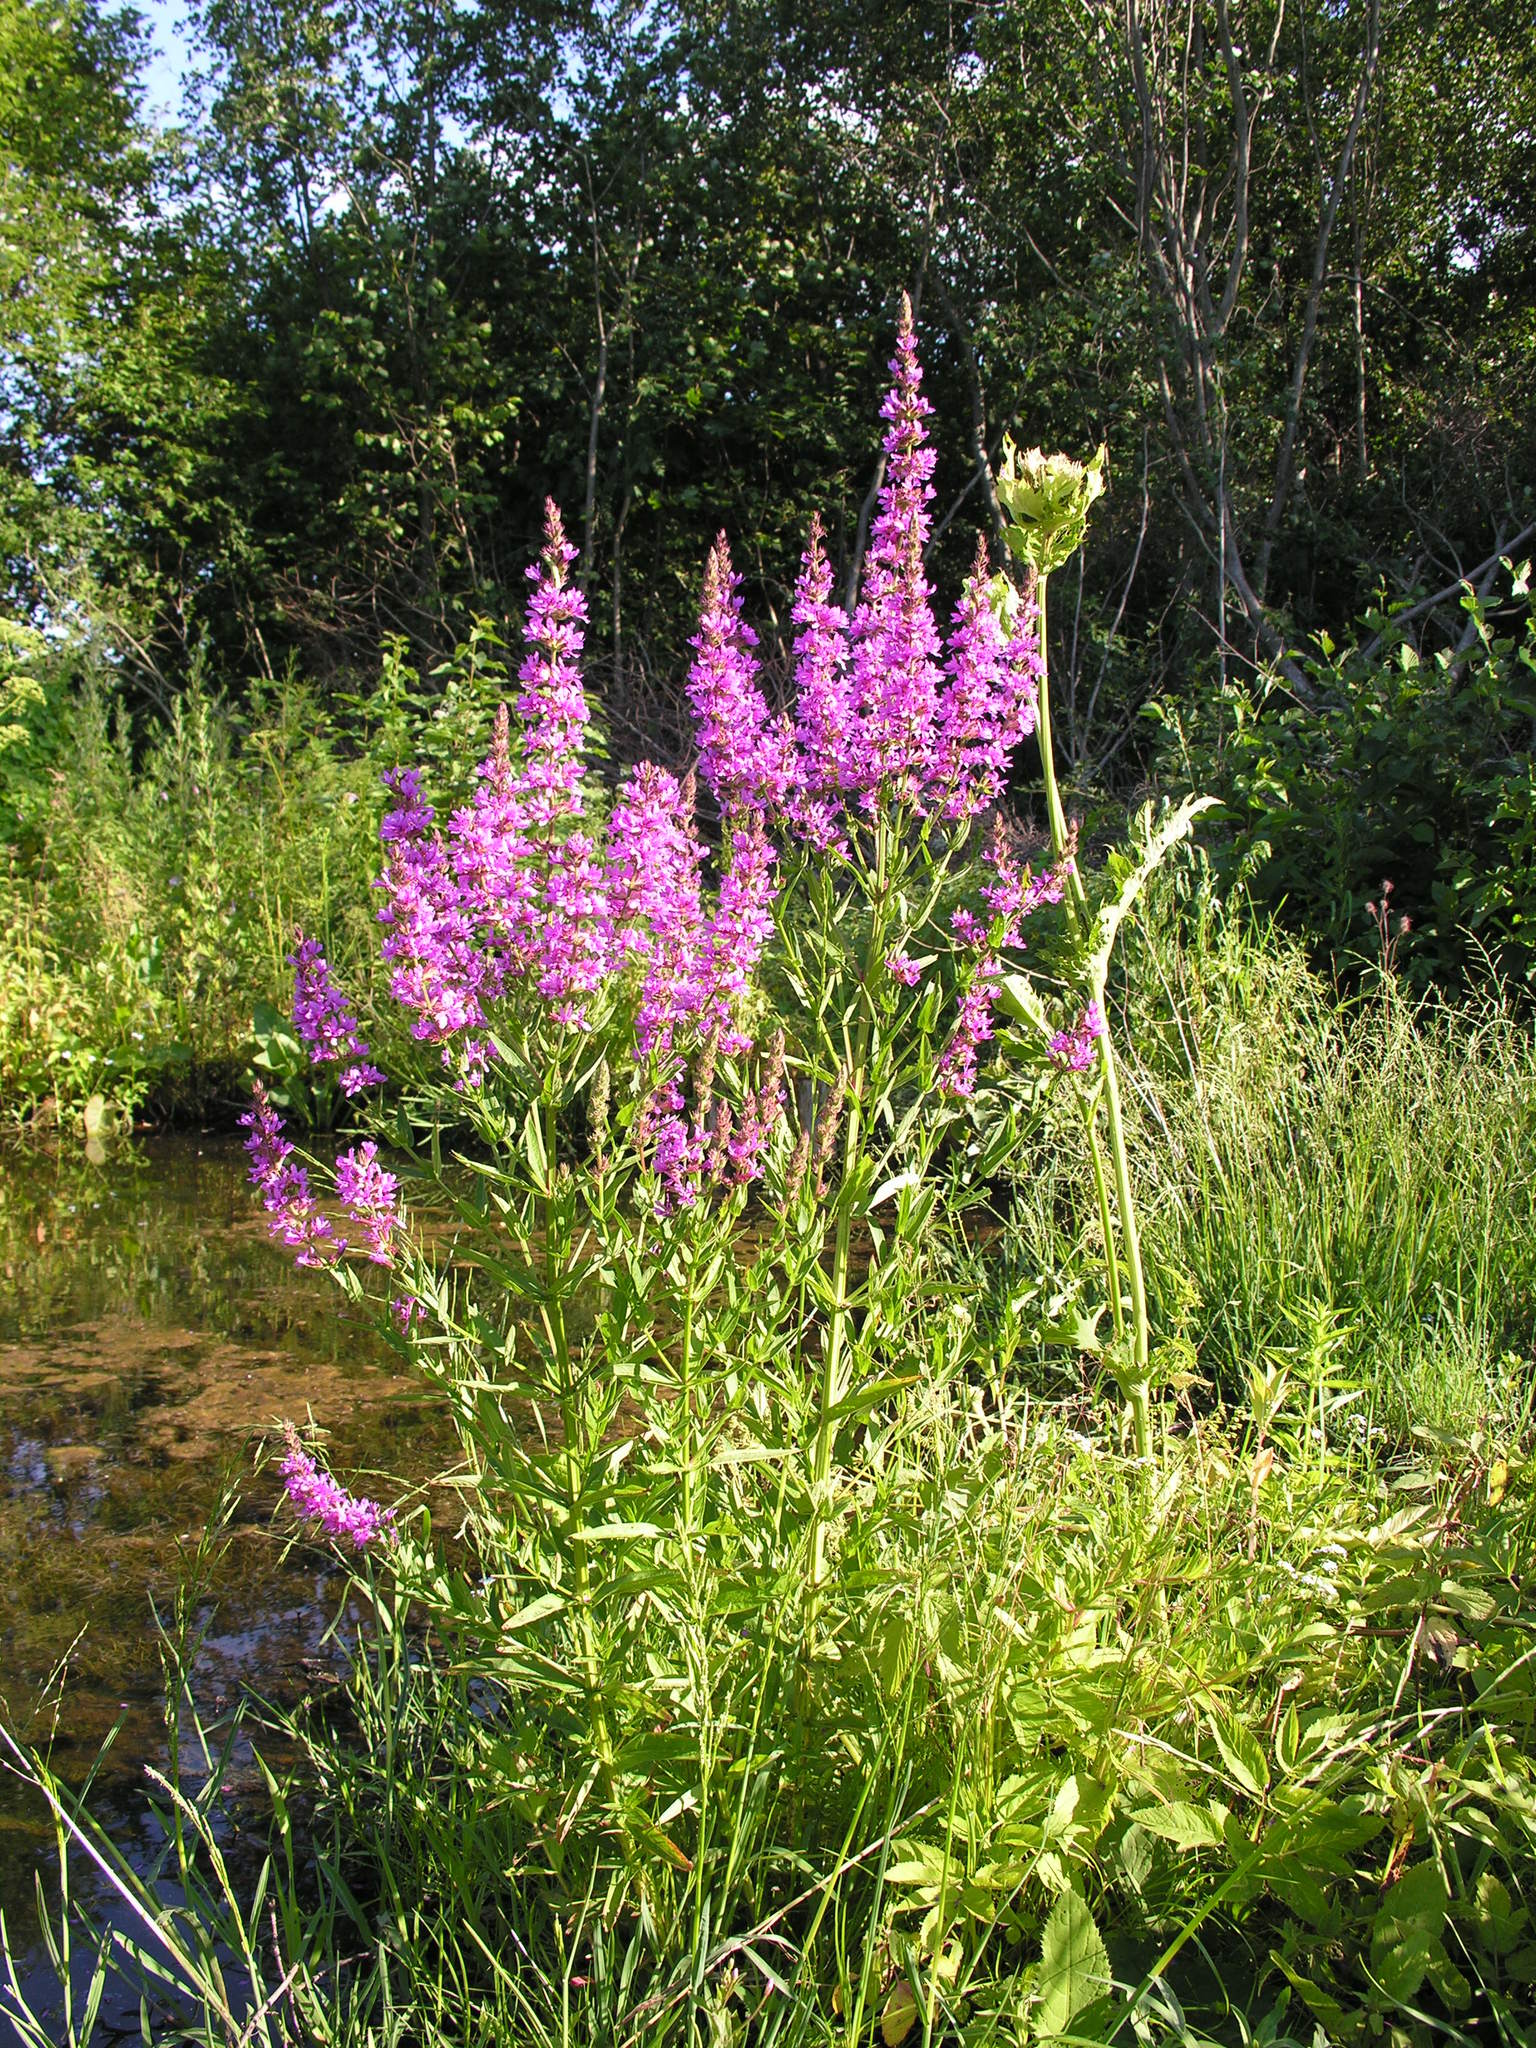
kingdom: Plantae
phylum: Tracheophyta
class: Magnoliopsida
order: Myrtales
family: Lythraceae
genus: Lythrum
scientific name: Lythrum salicaria
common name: Purple loosestrife
